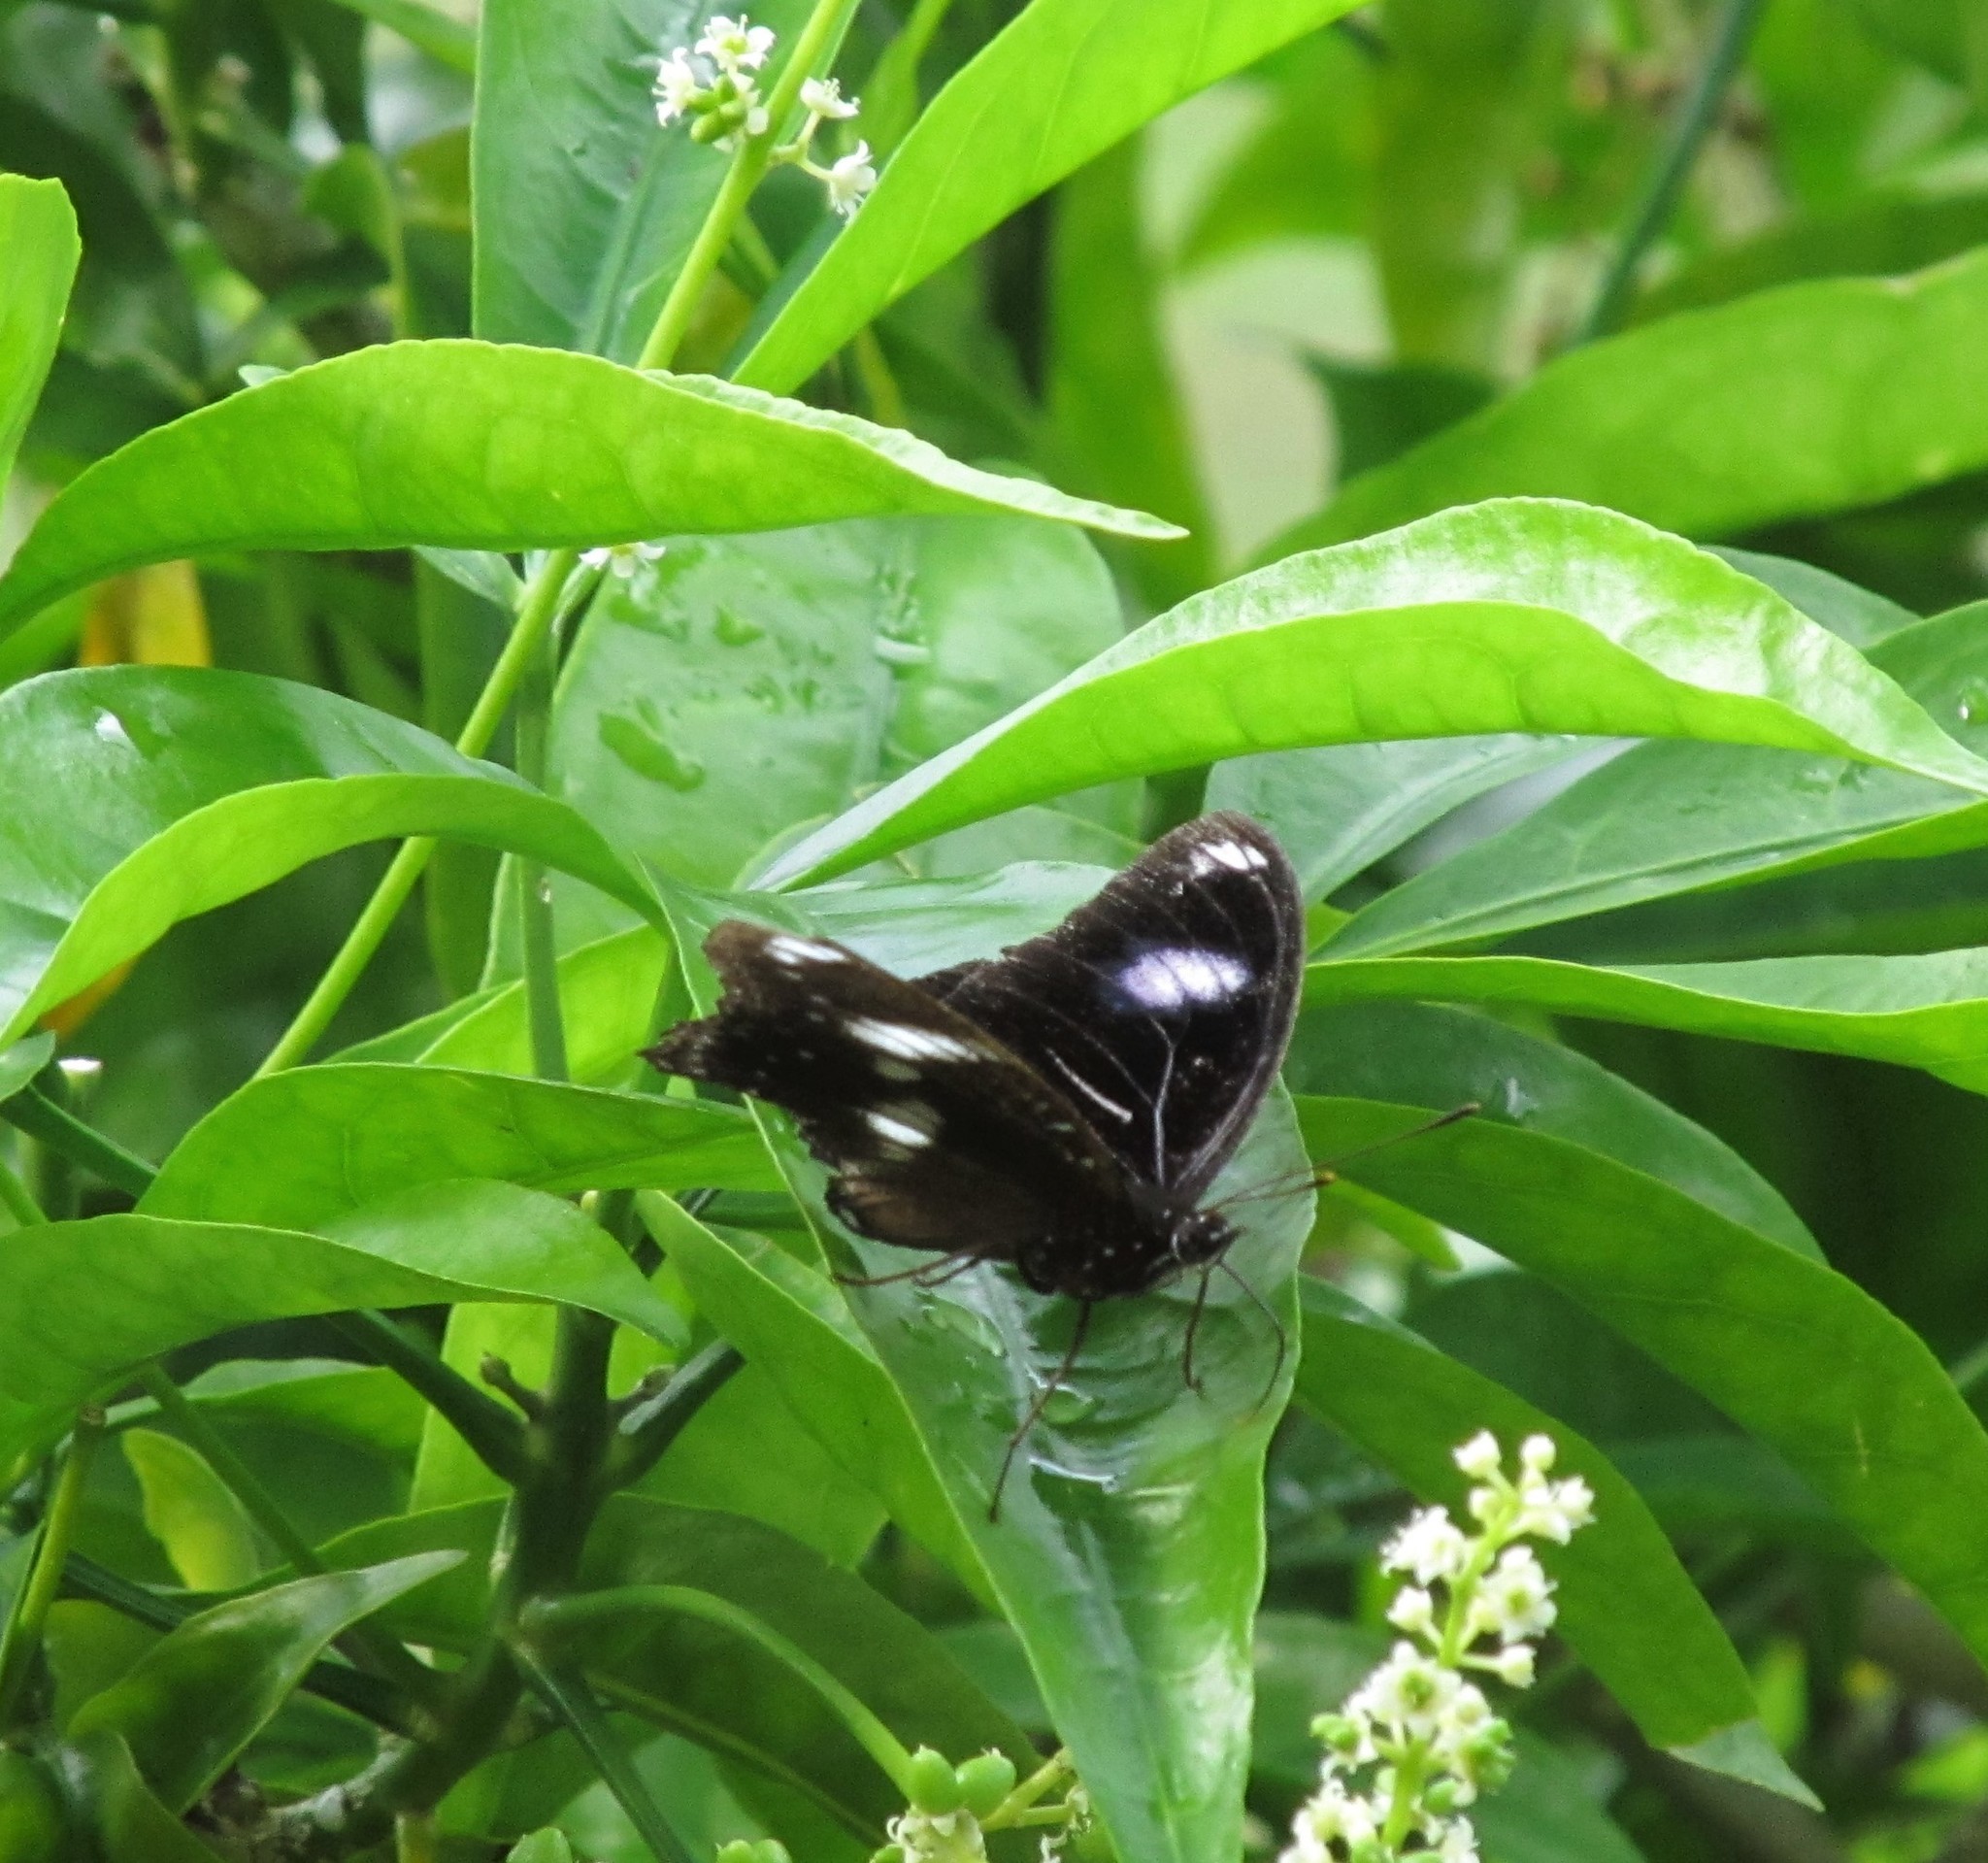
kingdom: Animalia
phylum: Arthropoda
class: Insecta
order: Lepidoptera
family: Nymphalidae
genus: Hypolimnas
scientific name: Hypolimnas bolina
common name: Great eggfly
